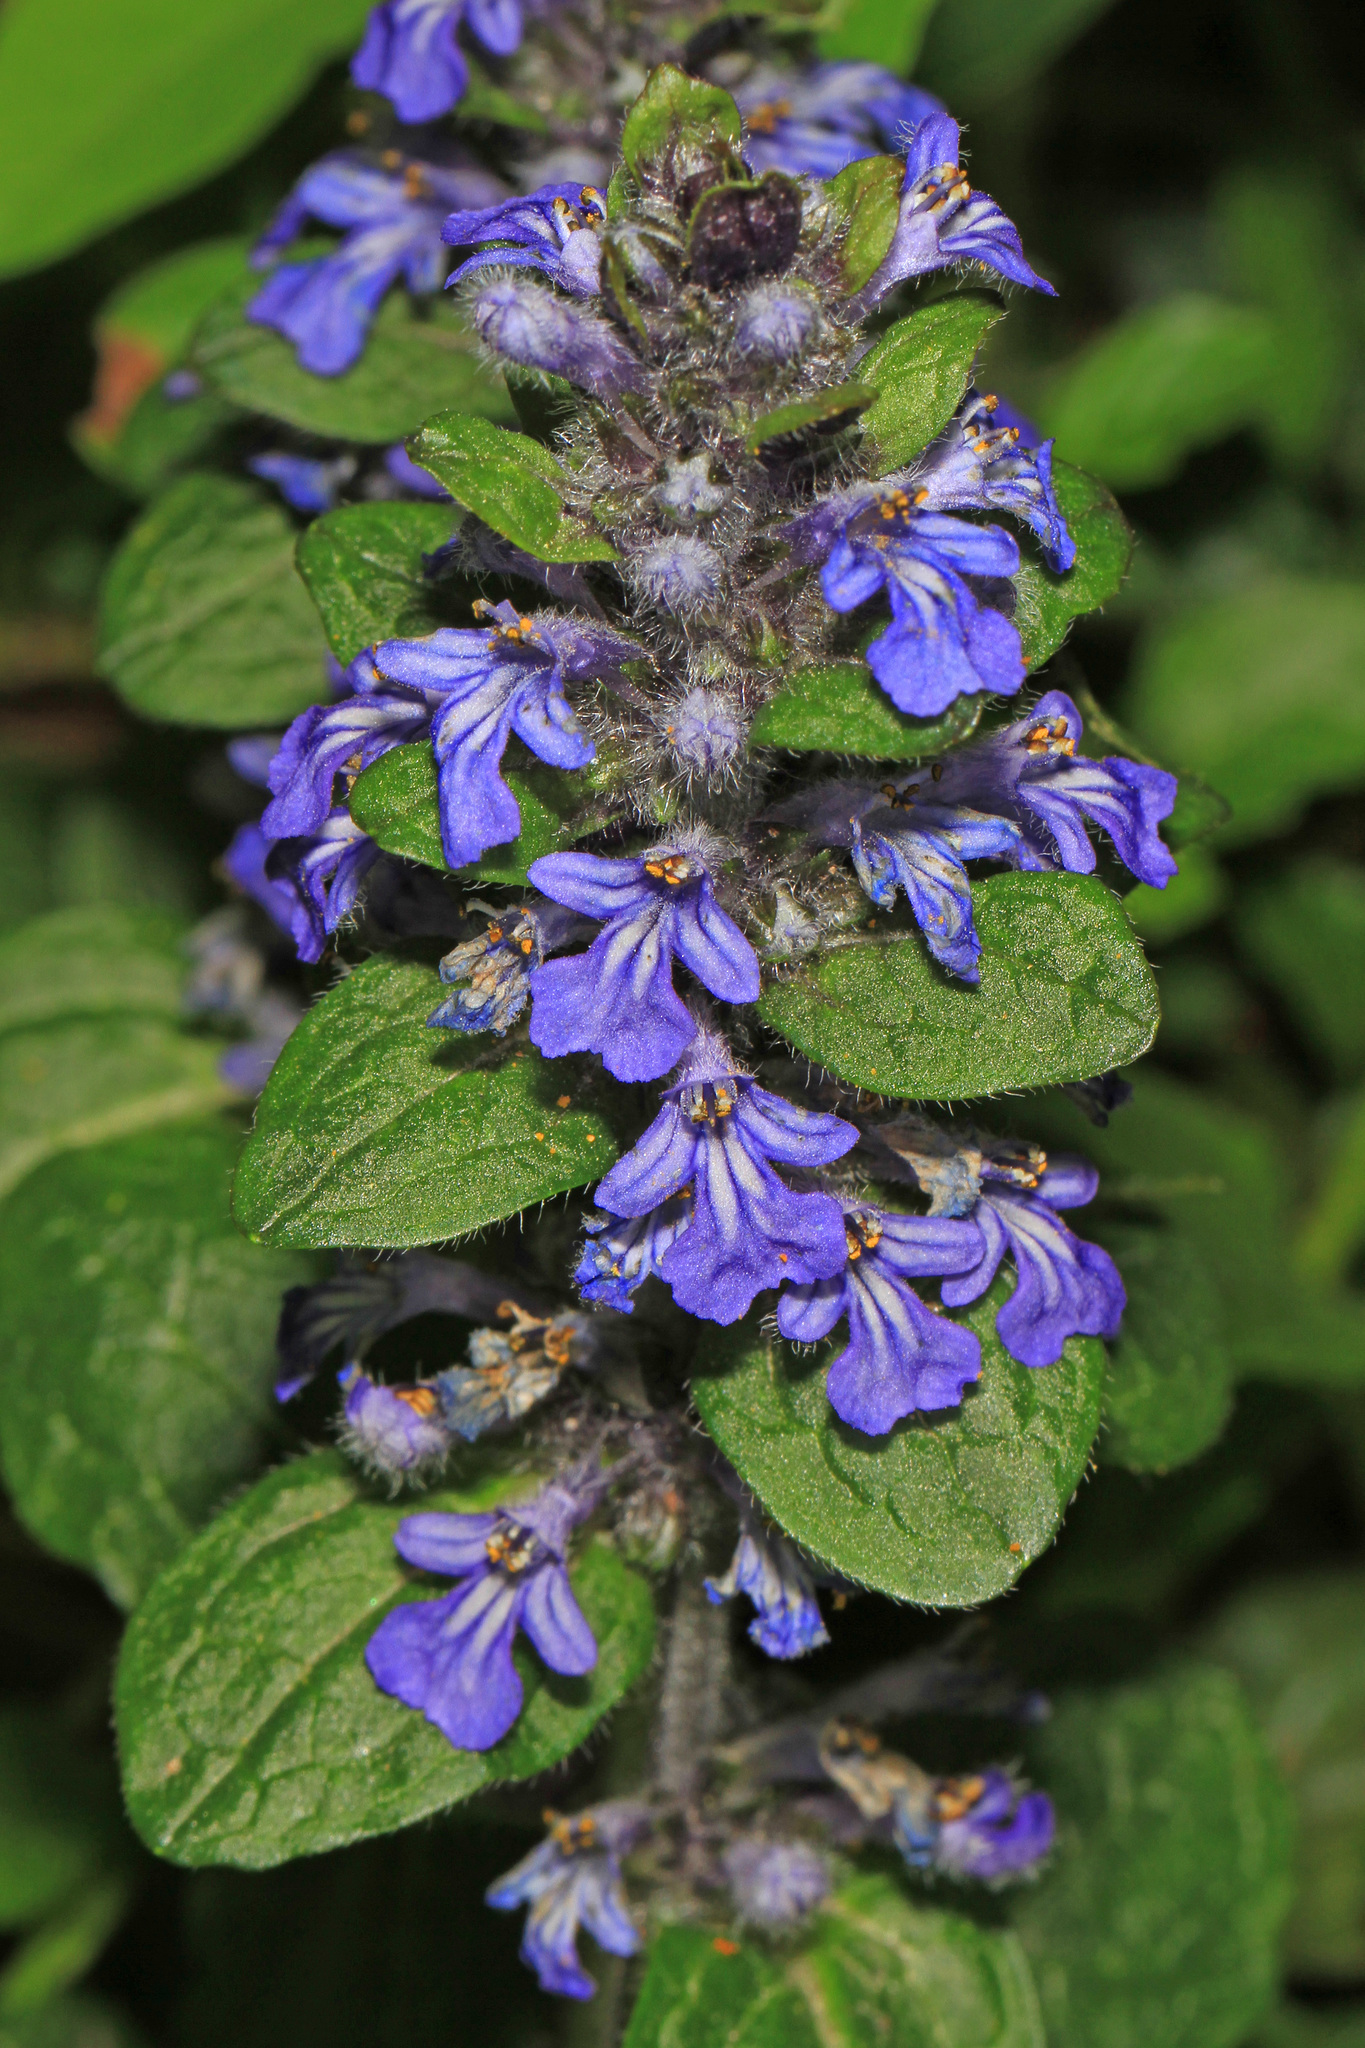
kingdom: Plantae
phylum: Tracheophyta
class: Magnoliopsida
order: Lamiales
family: Lamiaceae
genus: Ajuga
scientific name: Ajuga reptans
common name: Bugle
